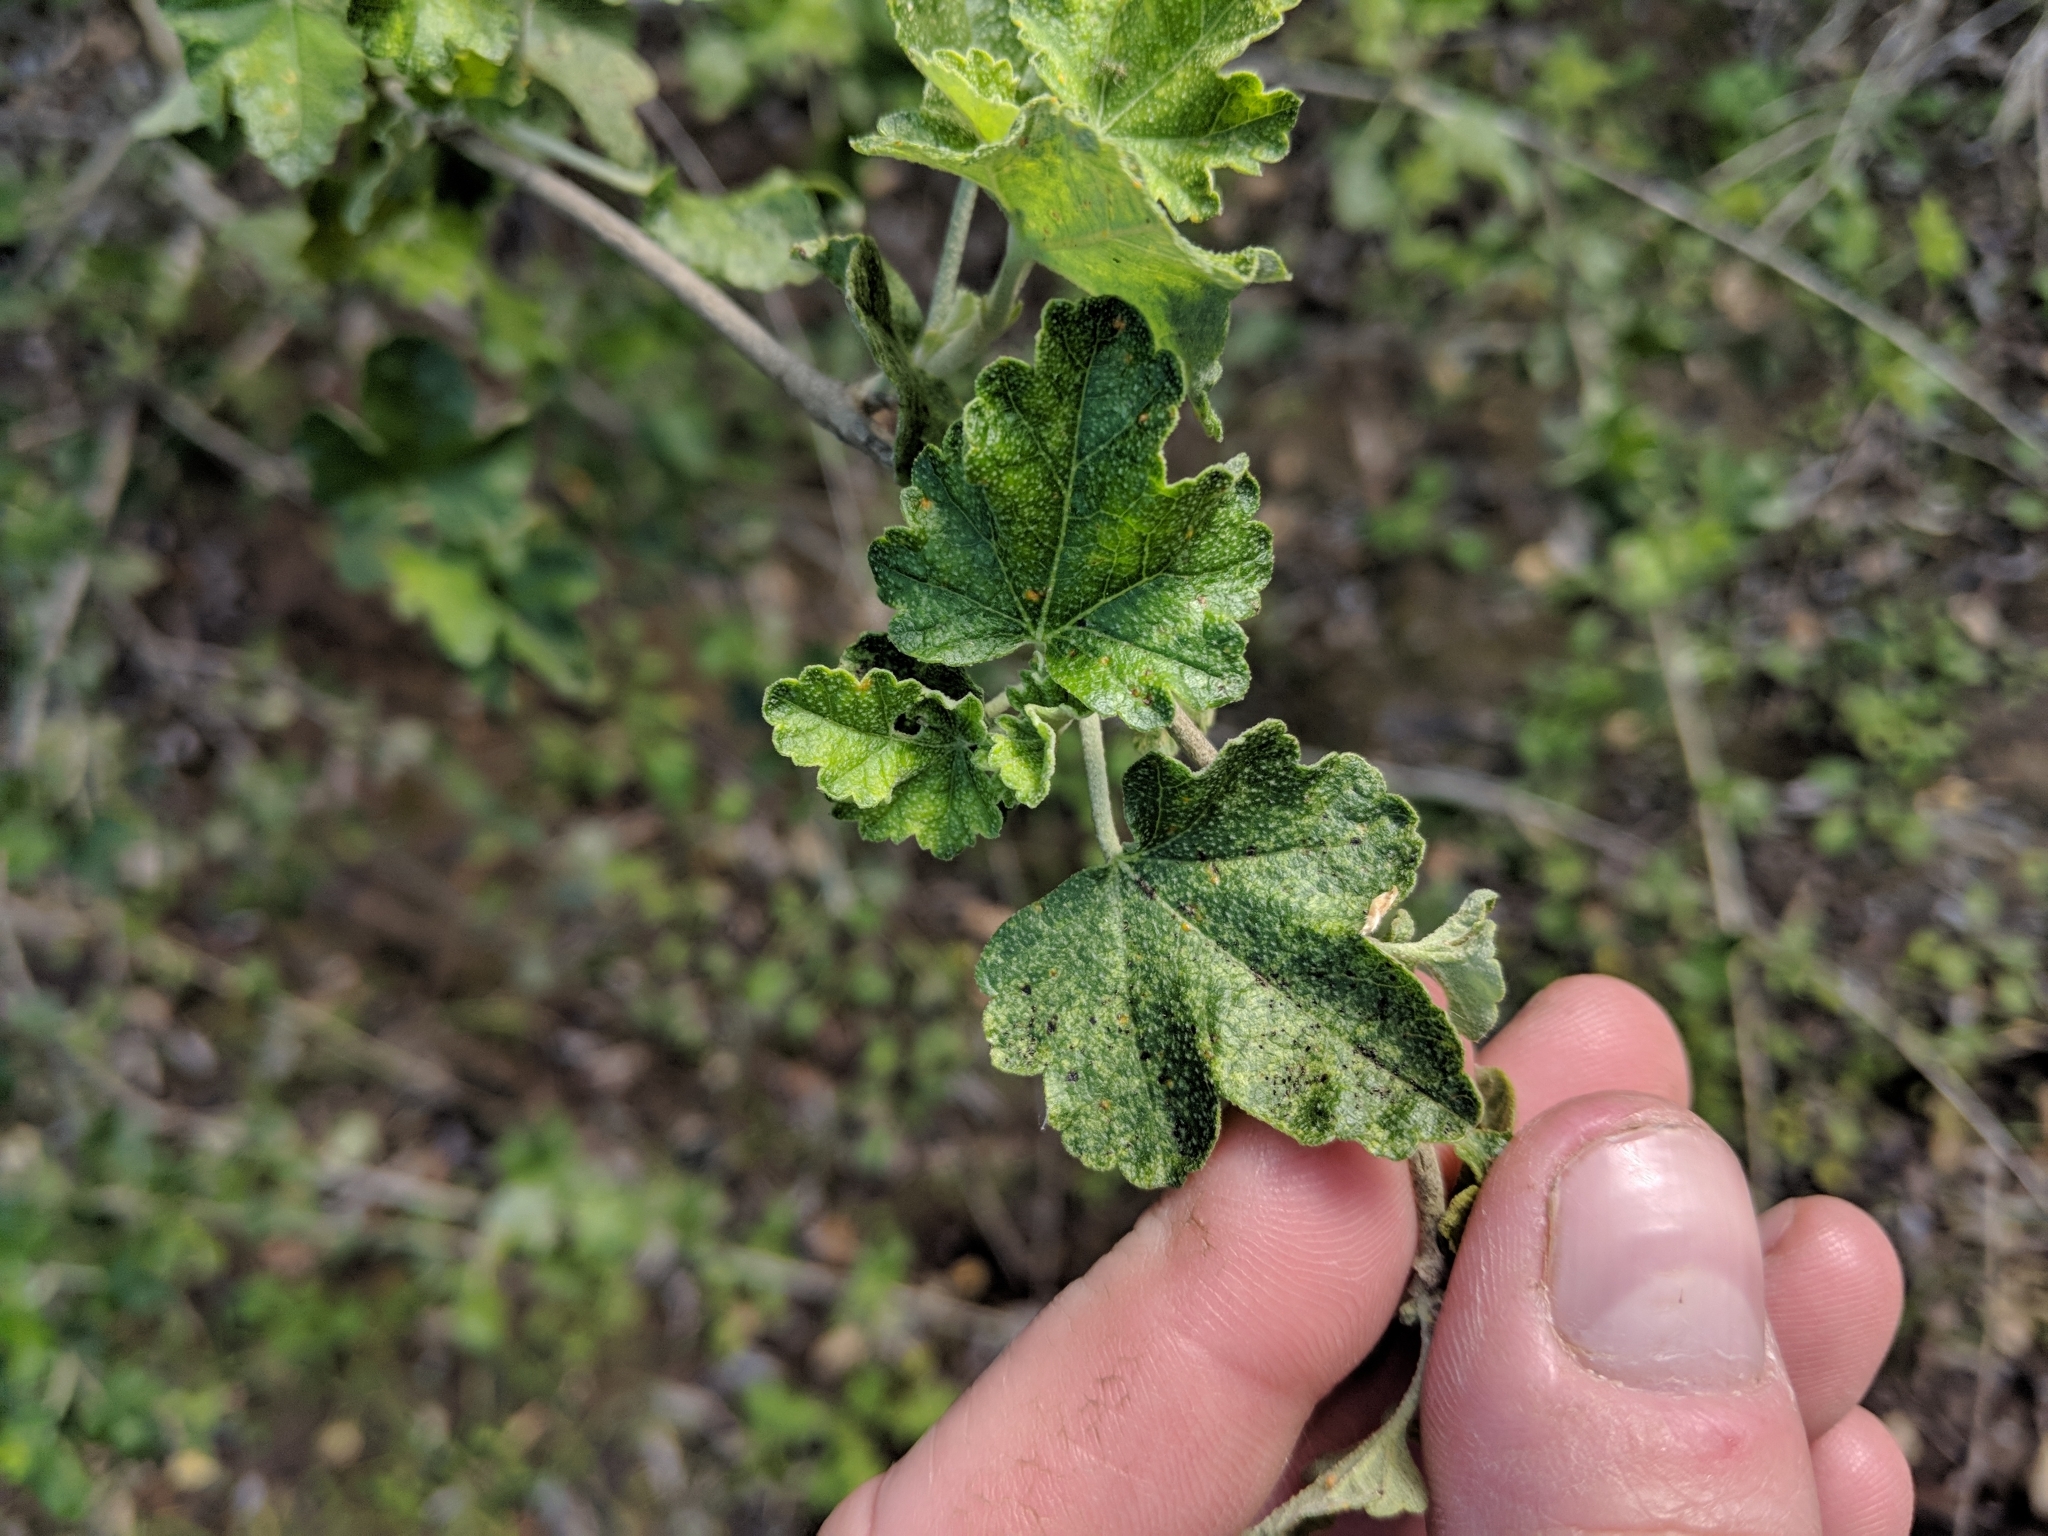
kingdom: Plantae
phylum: Tracheophyta
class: Magnoliopsida
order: Malvales
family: Malvaceae
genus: Malacothamnus
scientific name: Malacothamnus fasciculatus
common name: Sant cruz island bush-mallow
